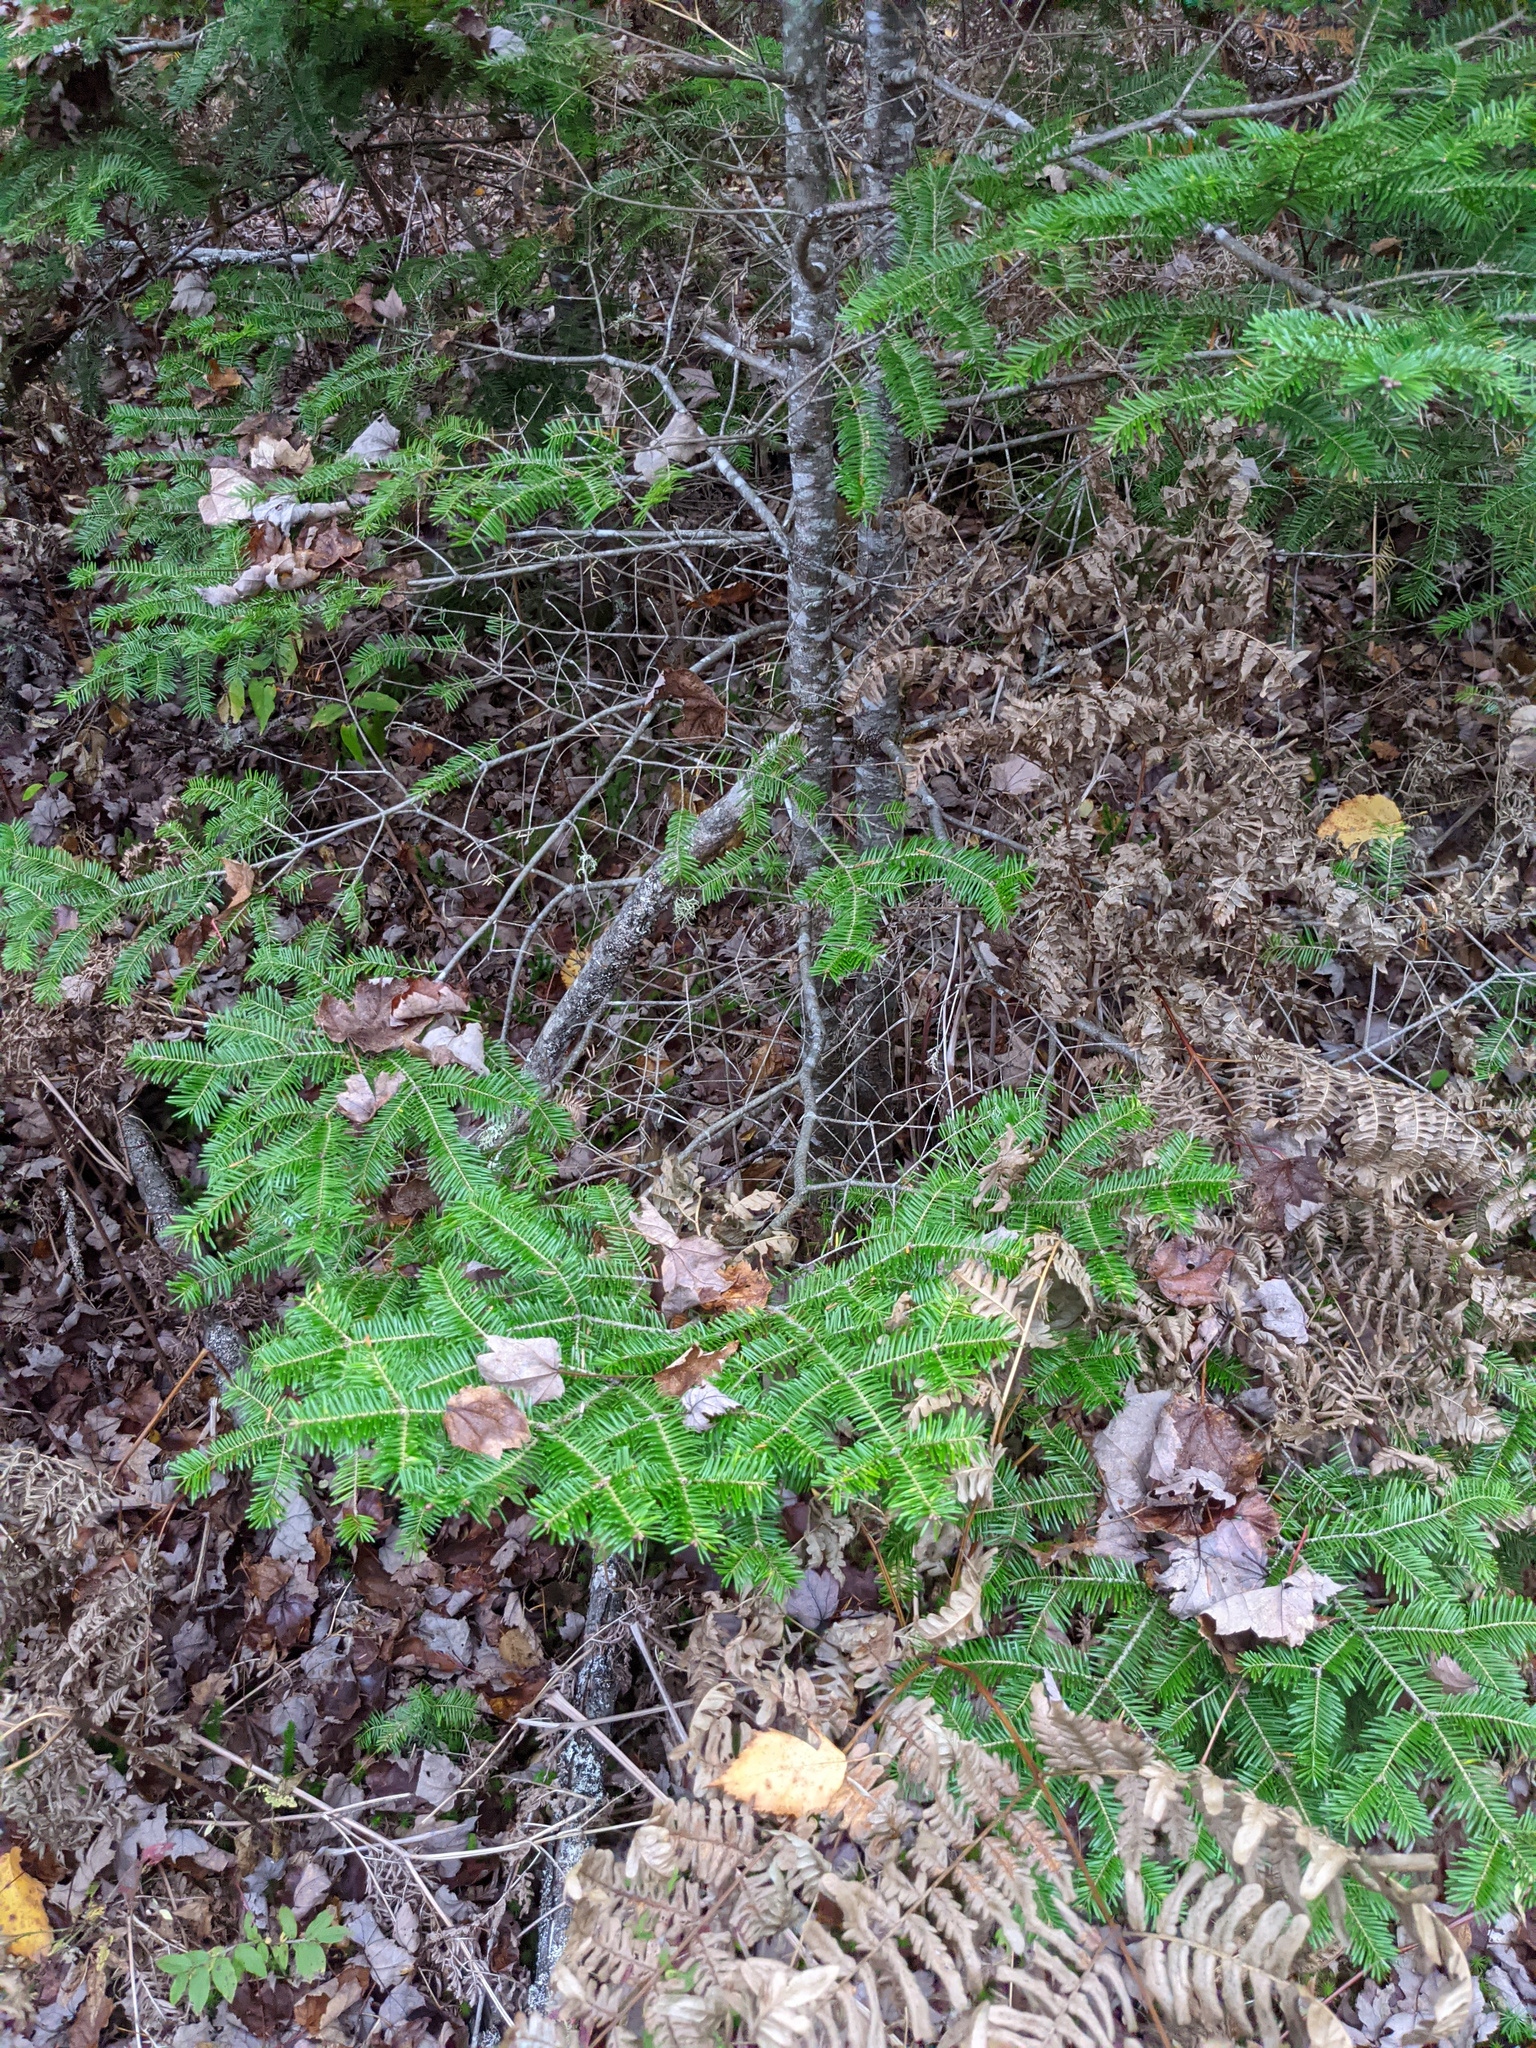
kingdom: Plantae
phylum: Tracheophyta
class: Pinopsida
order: Pinales
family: Pinaceae
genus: Abies
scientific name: Abies balsamea
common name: Balsam fir
